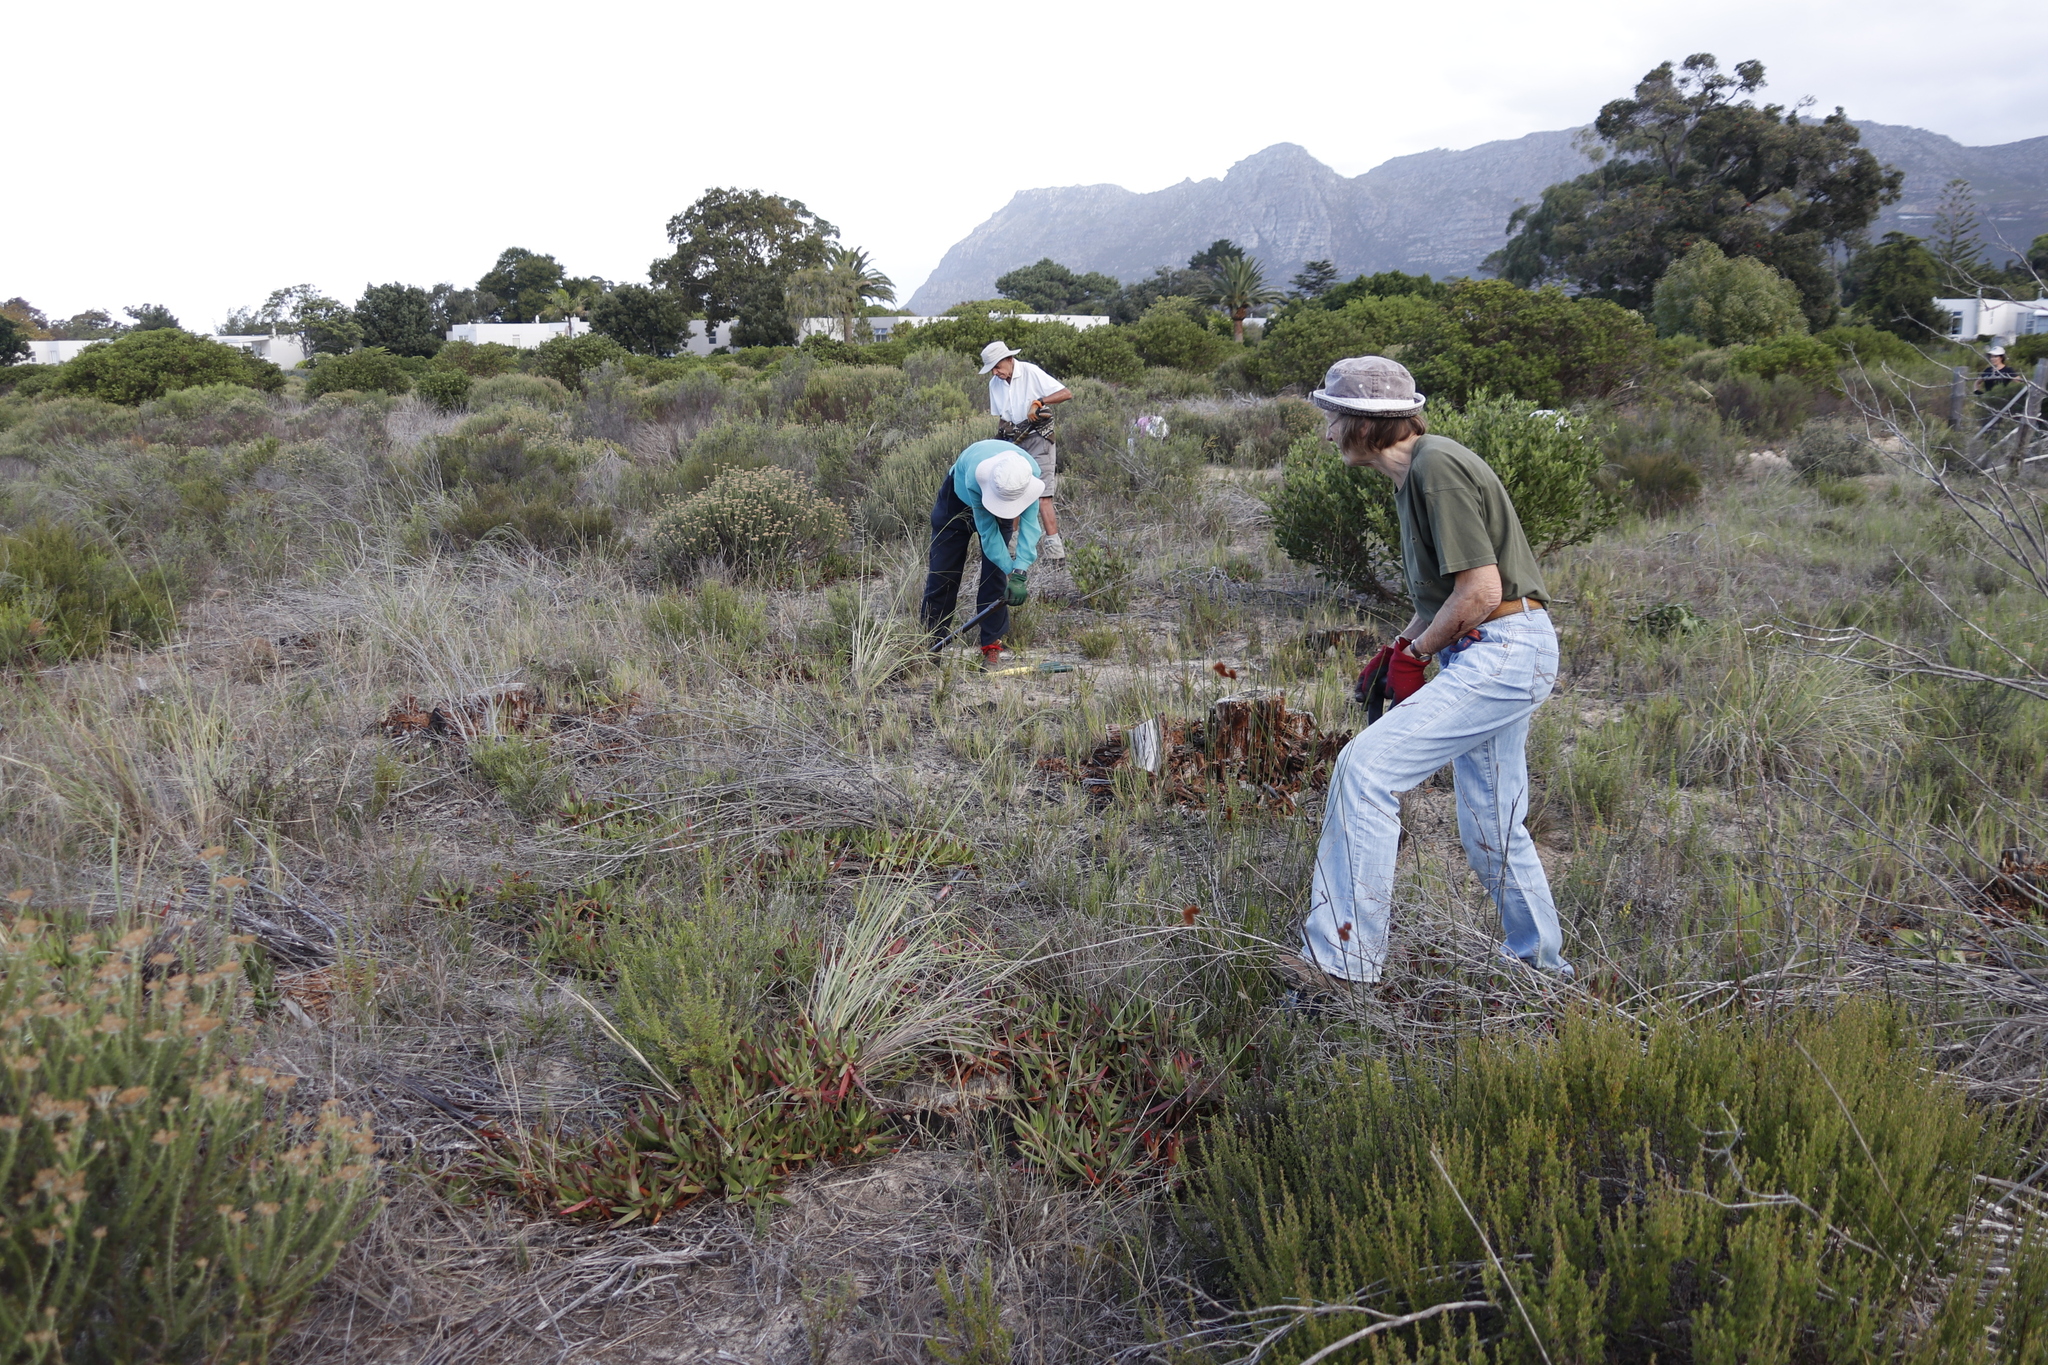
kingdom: Plantae
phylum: Tracheophyta
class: Magnoliopsida
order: Asterales
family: Asteraceae
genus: Metalasia
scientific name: Metalasia densa
